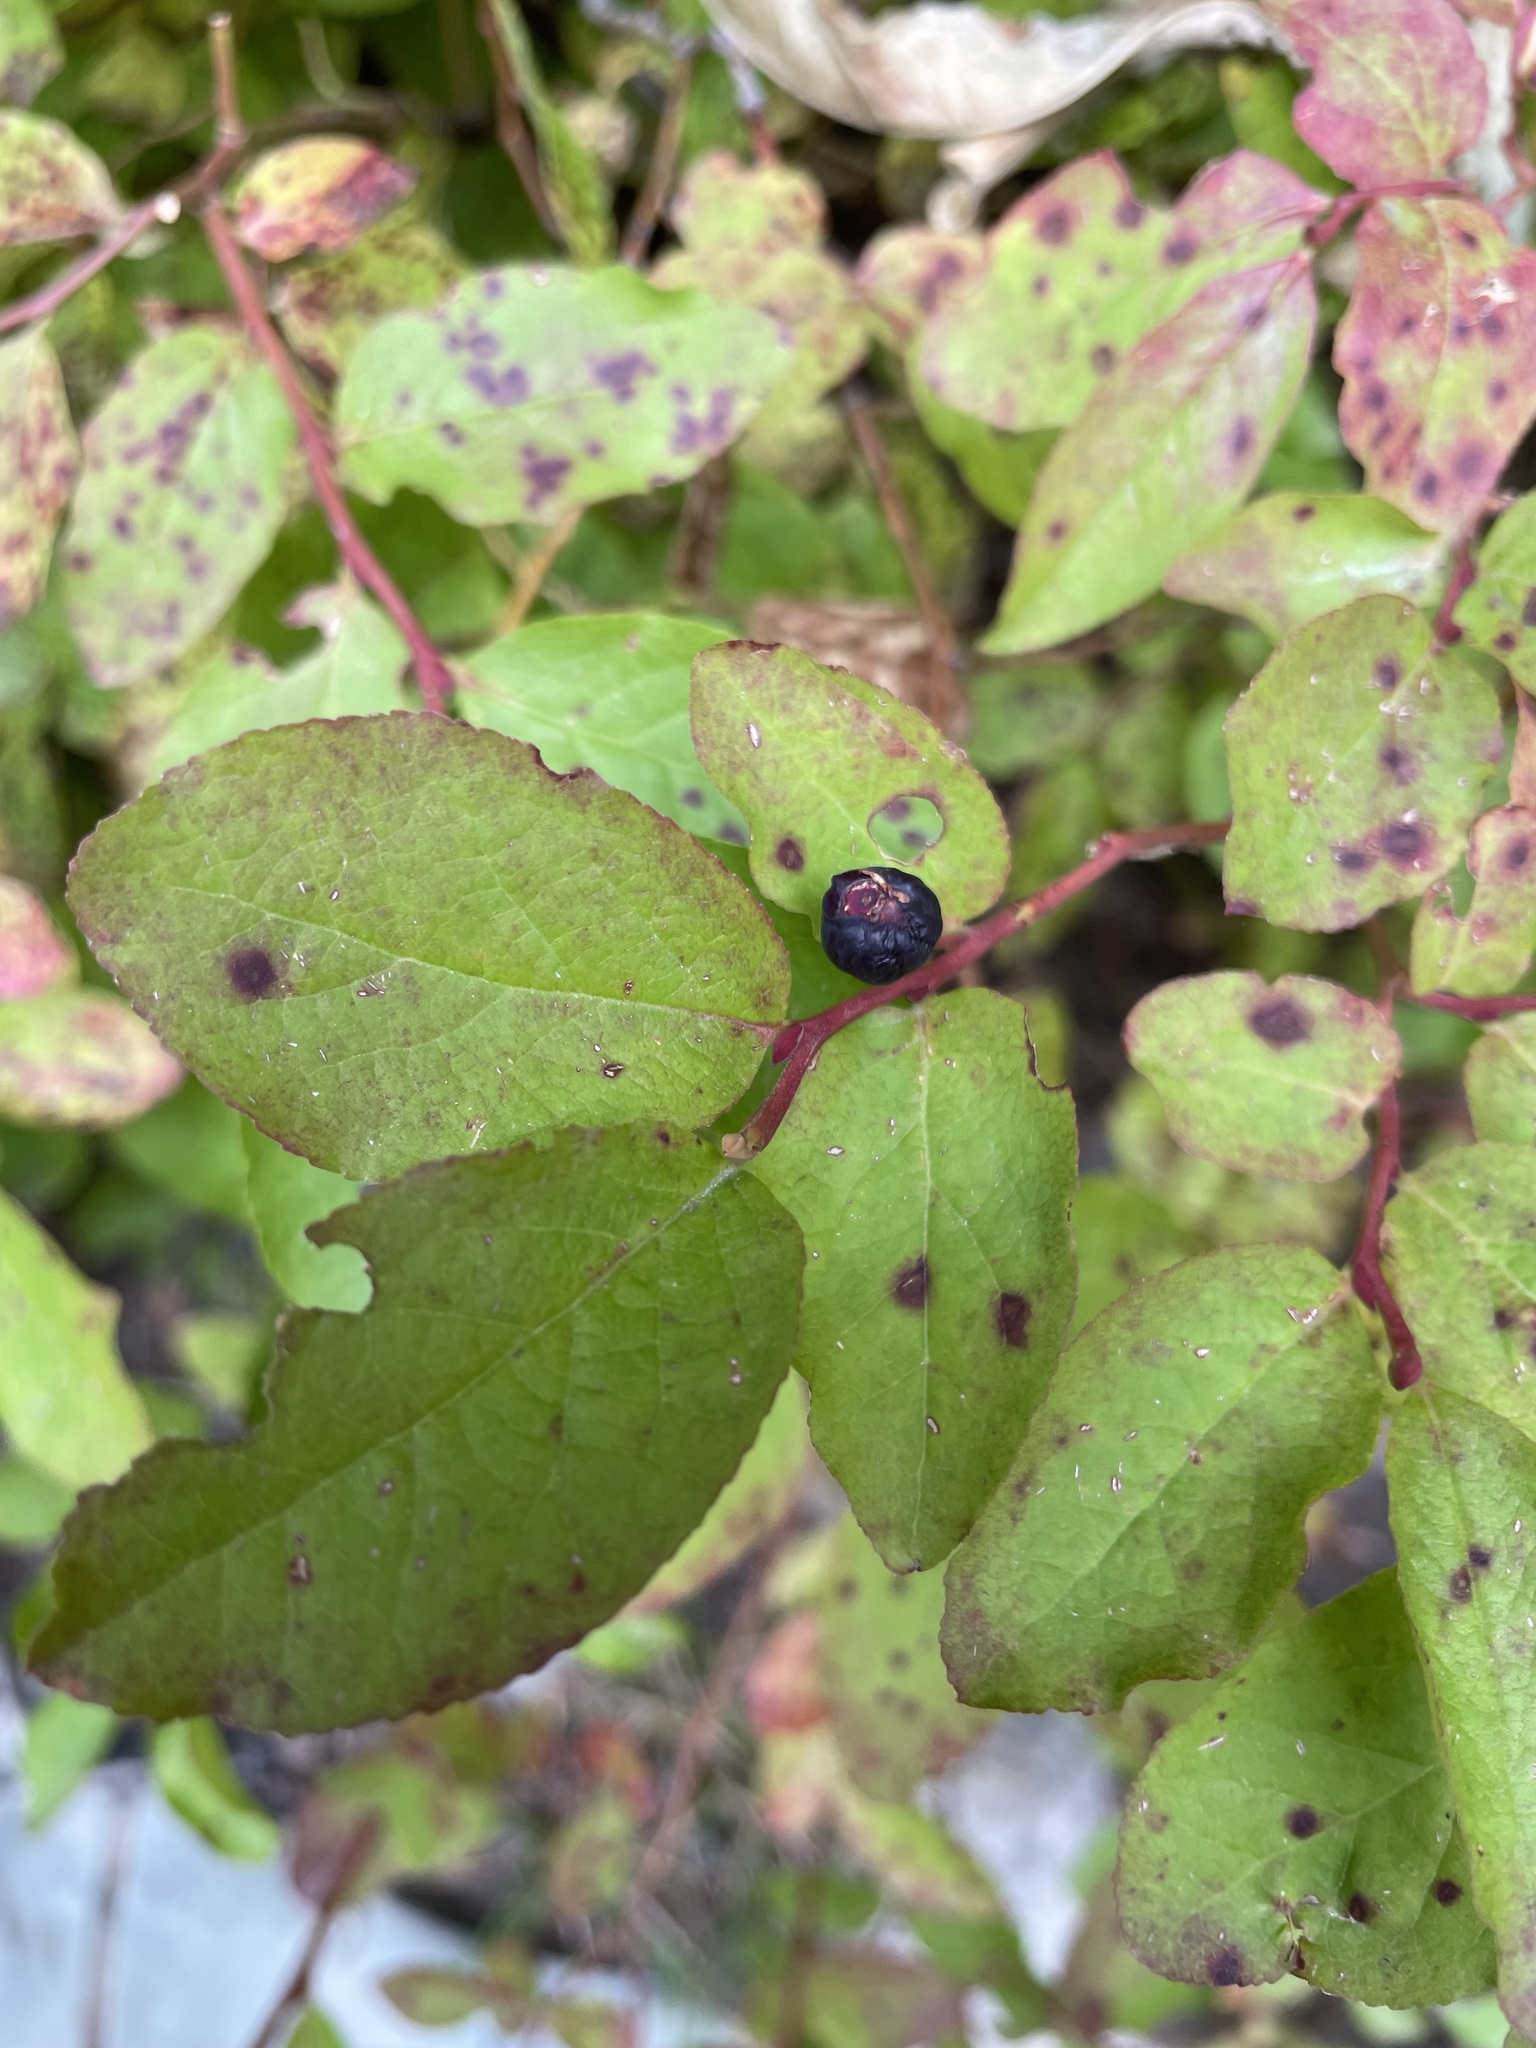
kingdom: Plantae
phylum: Tracheophyta
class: Magnoliopsida
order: Ericales
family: Ericaceae
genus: Vaccinium
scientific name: Vaccinium membranaceum
